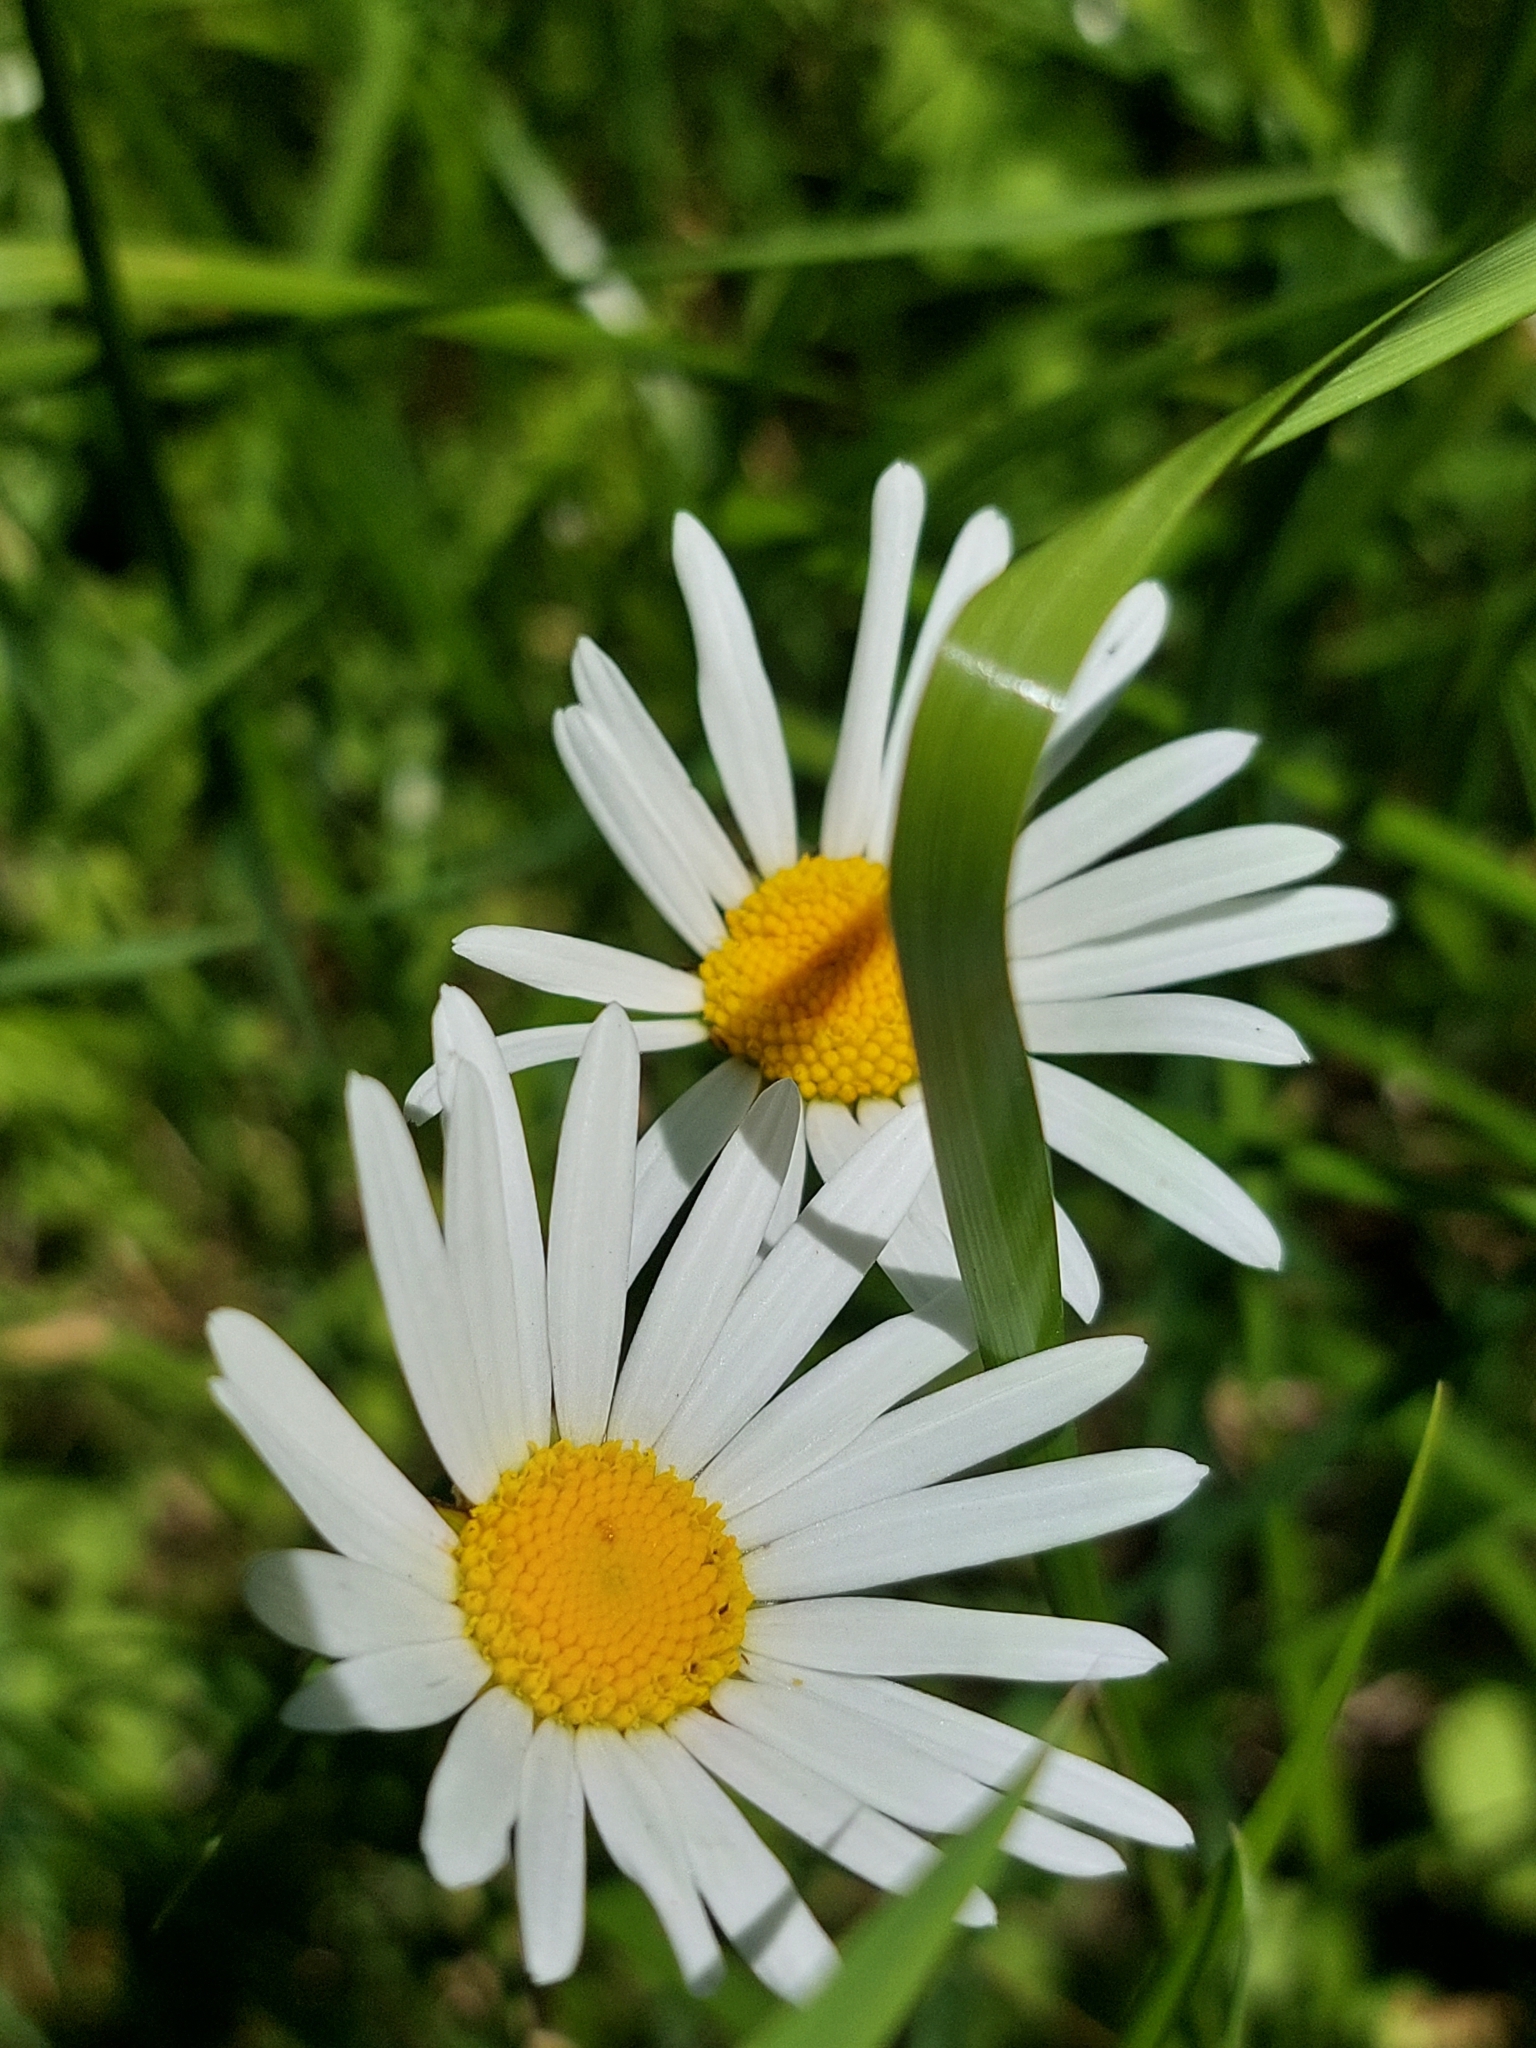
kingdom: Plantae
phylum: Tracheophyta
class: Magnoliopsida
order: Asterales
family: Asteraceae
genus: Leucanthemum
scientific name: Leucanthemum vulgare
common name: Oxeye daisy
